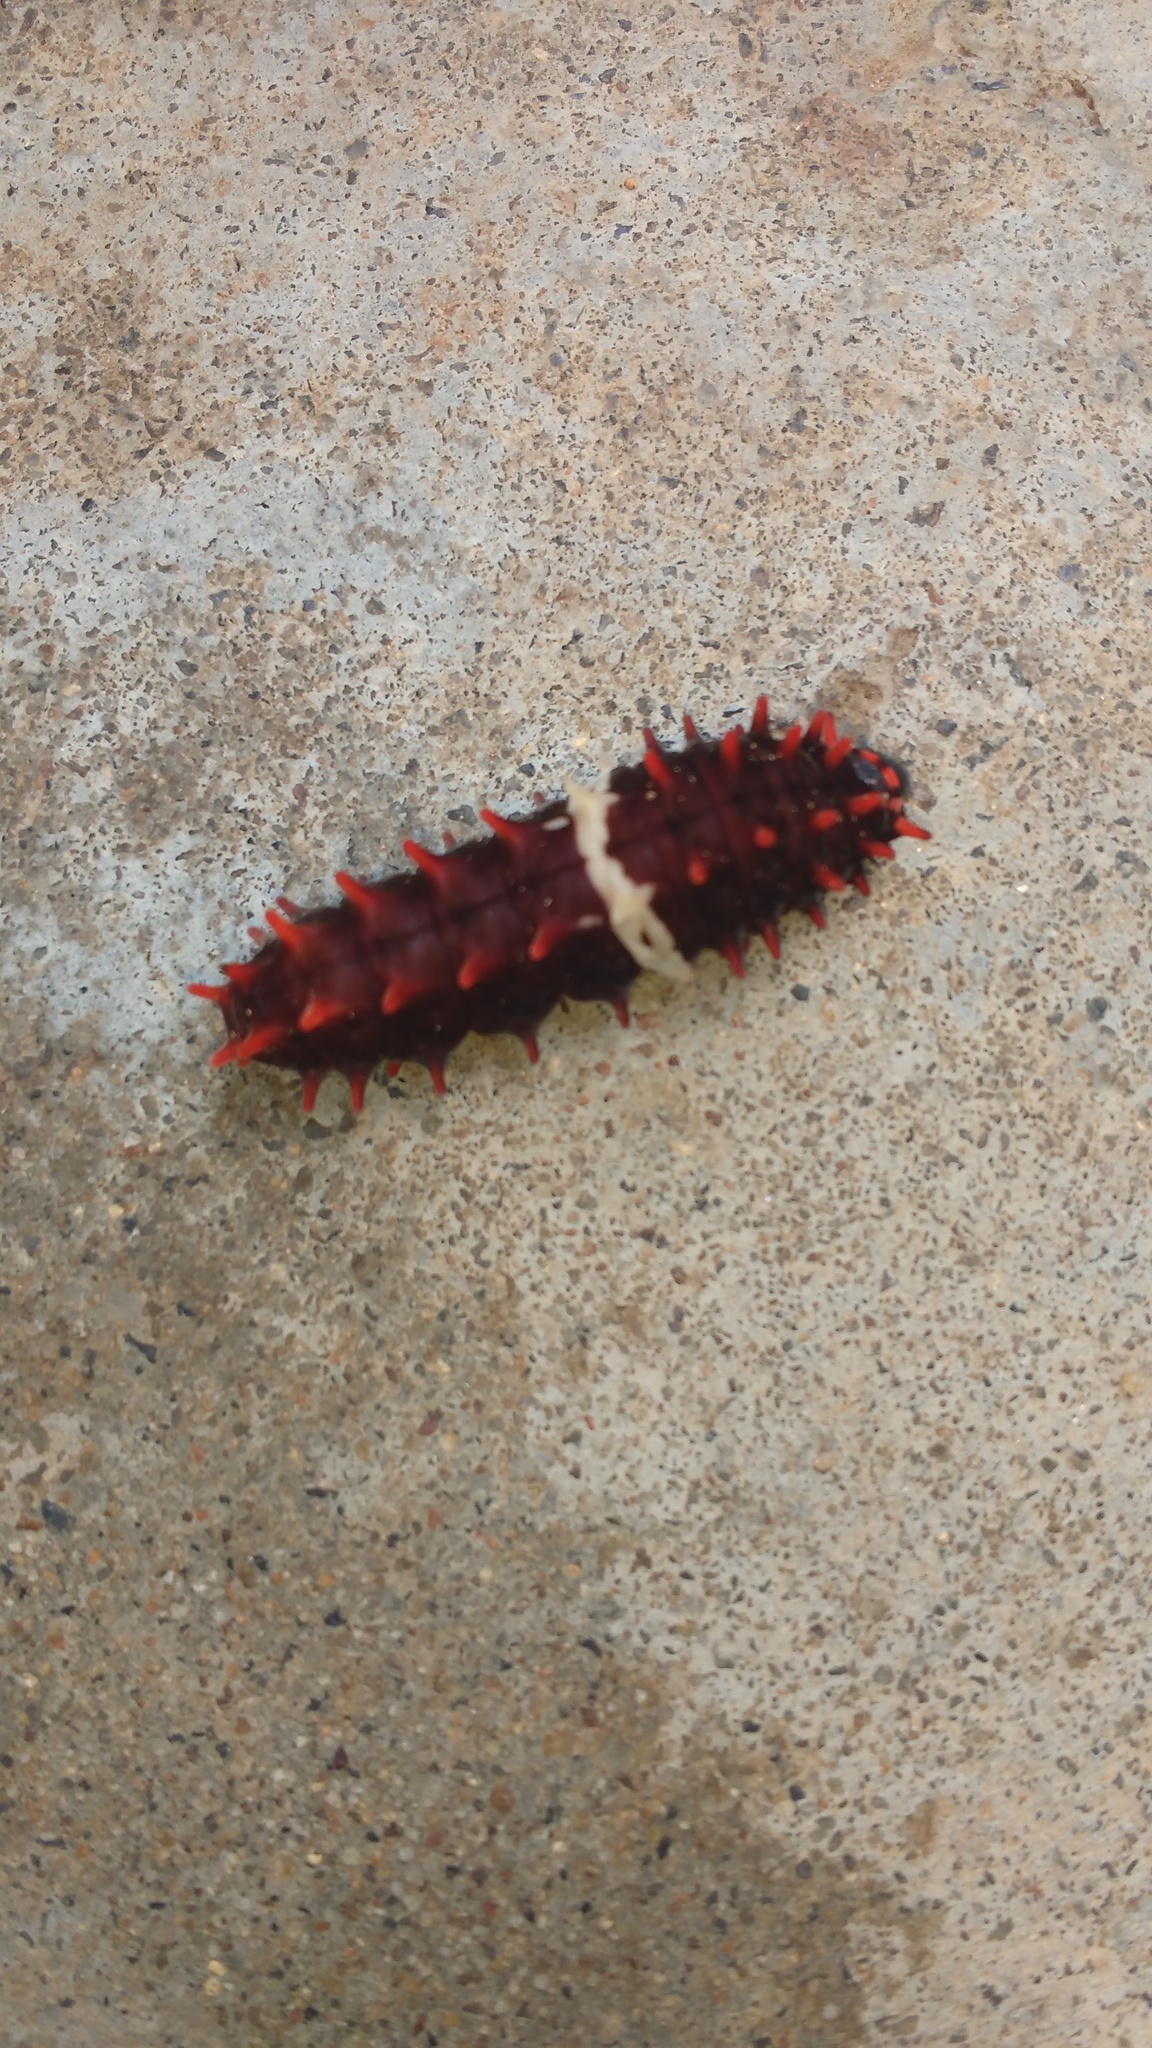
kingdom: Animalia
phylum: Arthropoda
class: Insecta
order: Lepidoptera
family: Papilionidae
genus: Pachliopta
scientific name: Pachliopta aristolochiae
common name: Common rose
